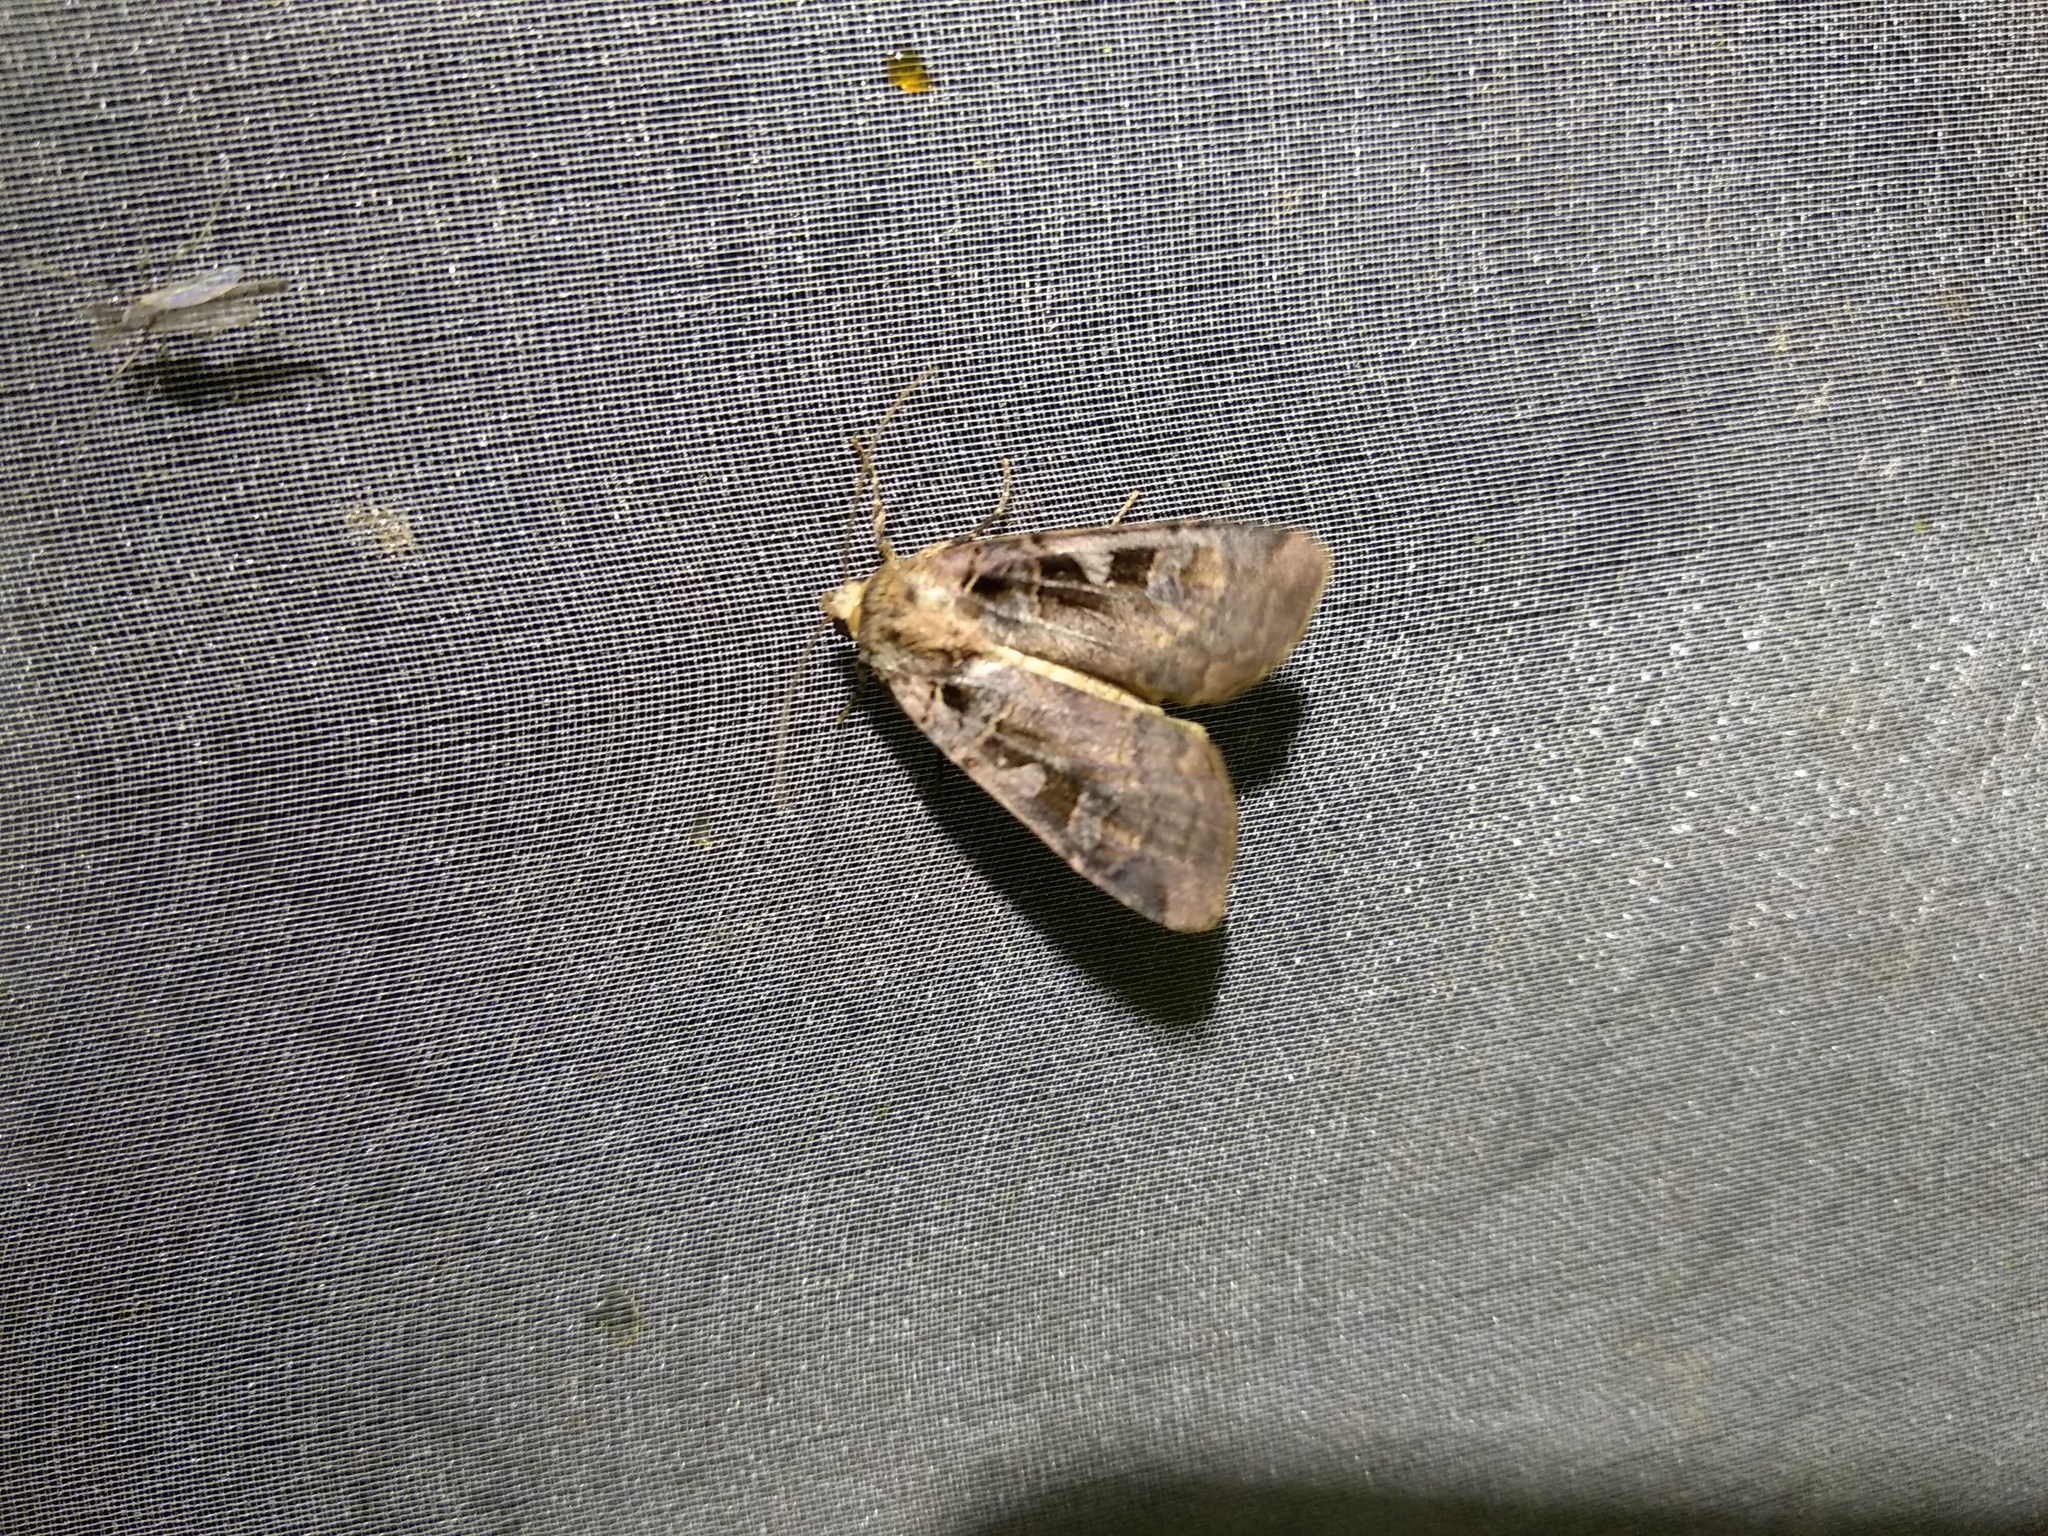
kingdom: Animalia
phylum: Arthropoda
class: Insecta
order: Lepidoptera
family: Noctuidae
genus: Xestia
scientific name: Xestia ditrapezium
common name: Triple-spotted clay
